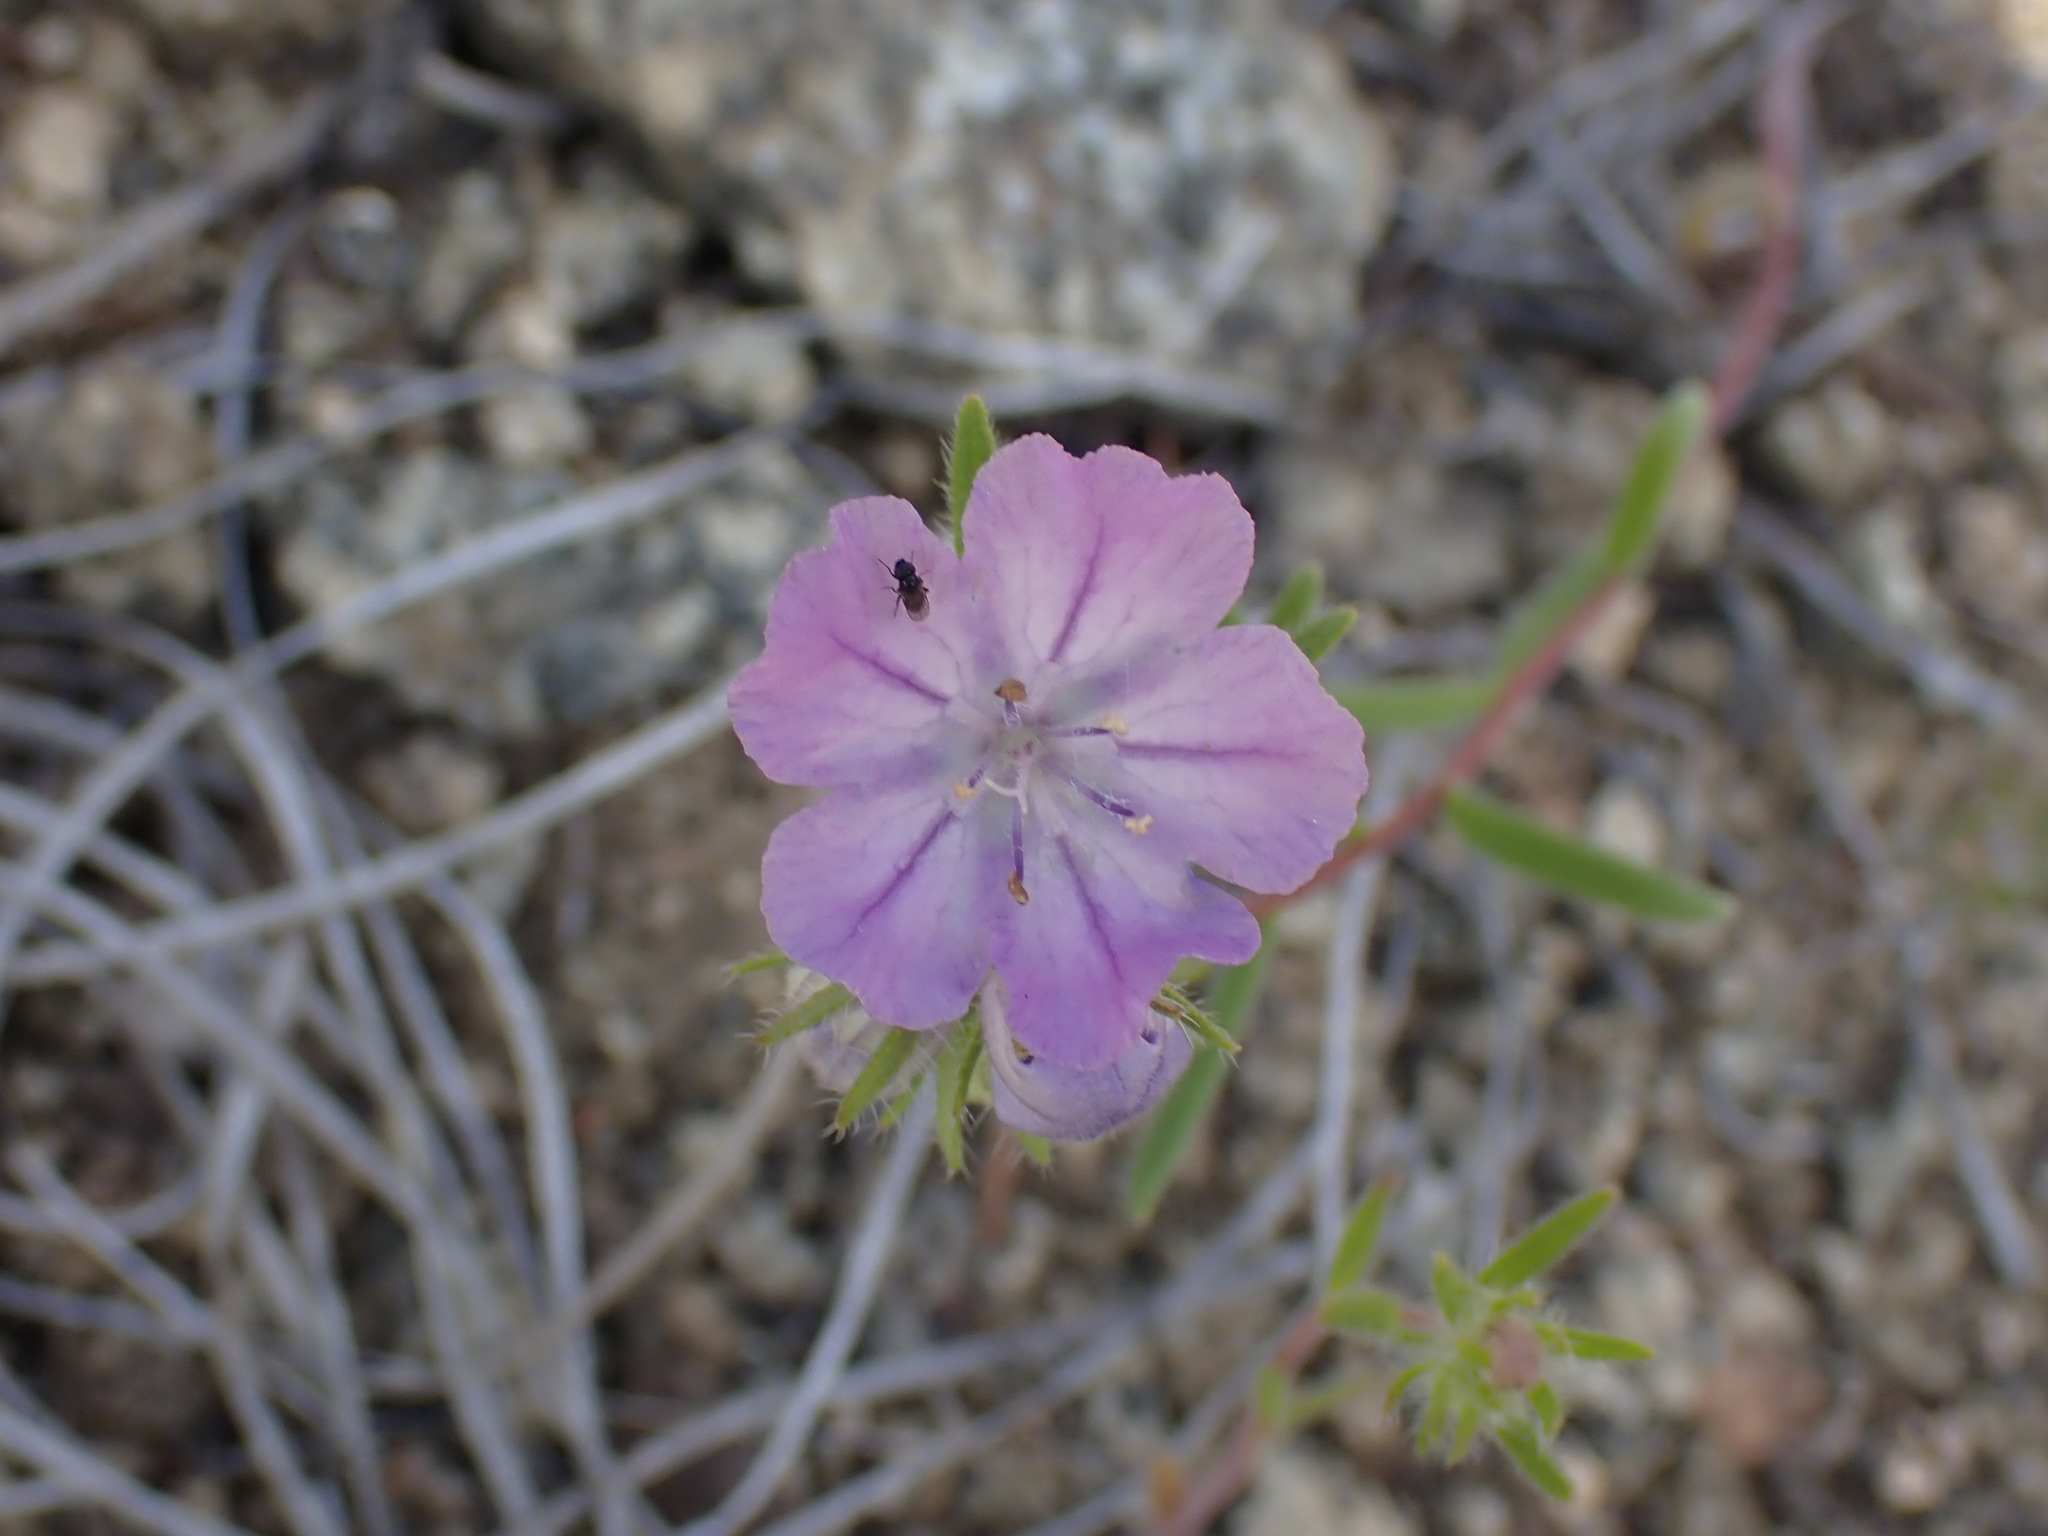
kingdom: Plantae
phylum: Tracheophyta
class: Magnoliopsida
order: Boraginales
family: Hydrophyllaceae
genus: Phacelia
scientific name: Phacelia linearis
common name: Linear-leaved phacelia
